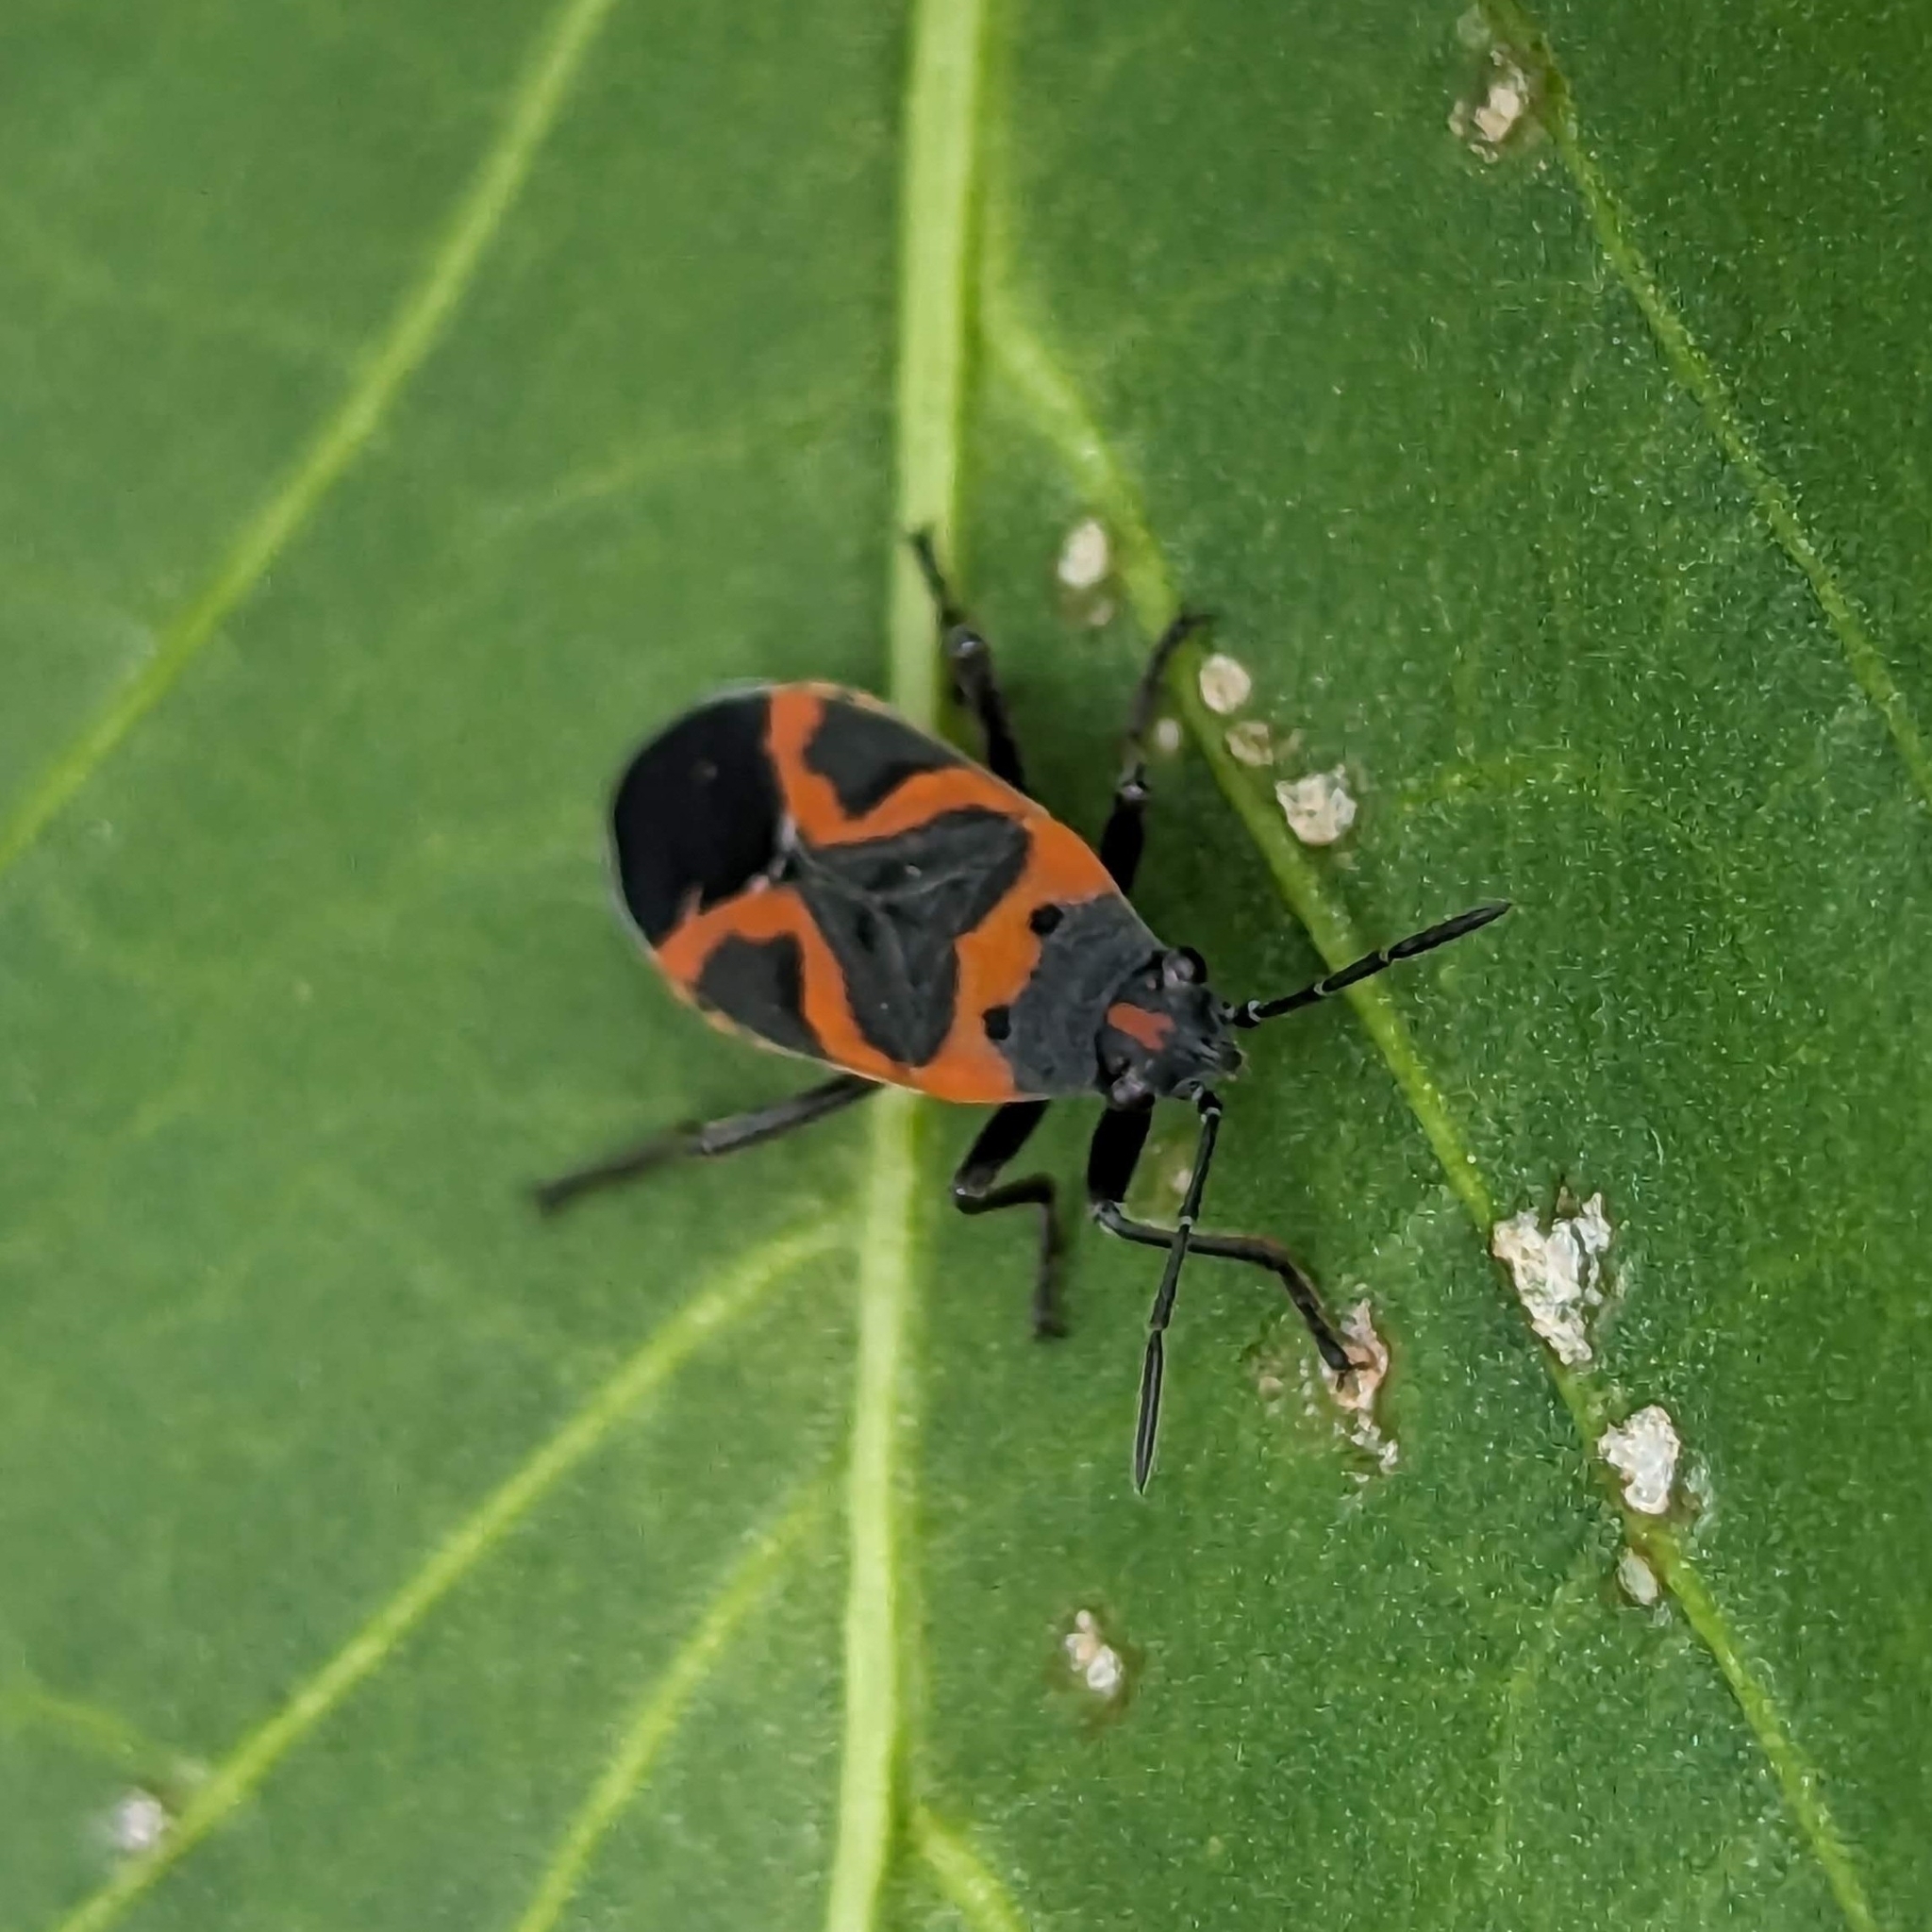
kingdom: Animalia
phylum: Arthropoda
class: Insecta
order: Hemiptera
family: Lygaeidae
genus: Lygaeus
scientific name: Lygaeus kalmii
